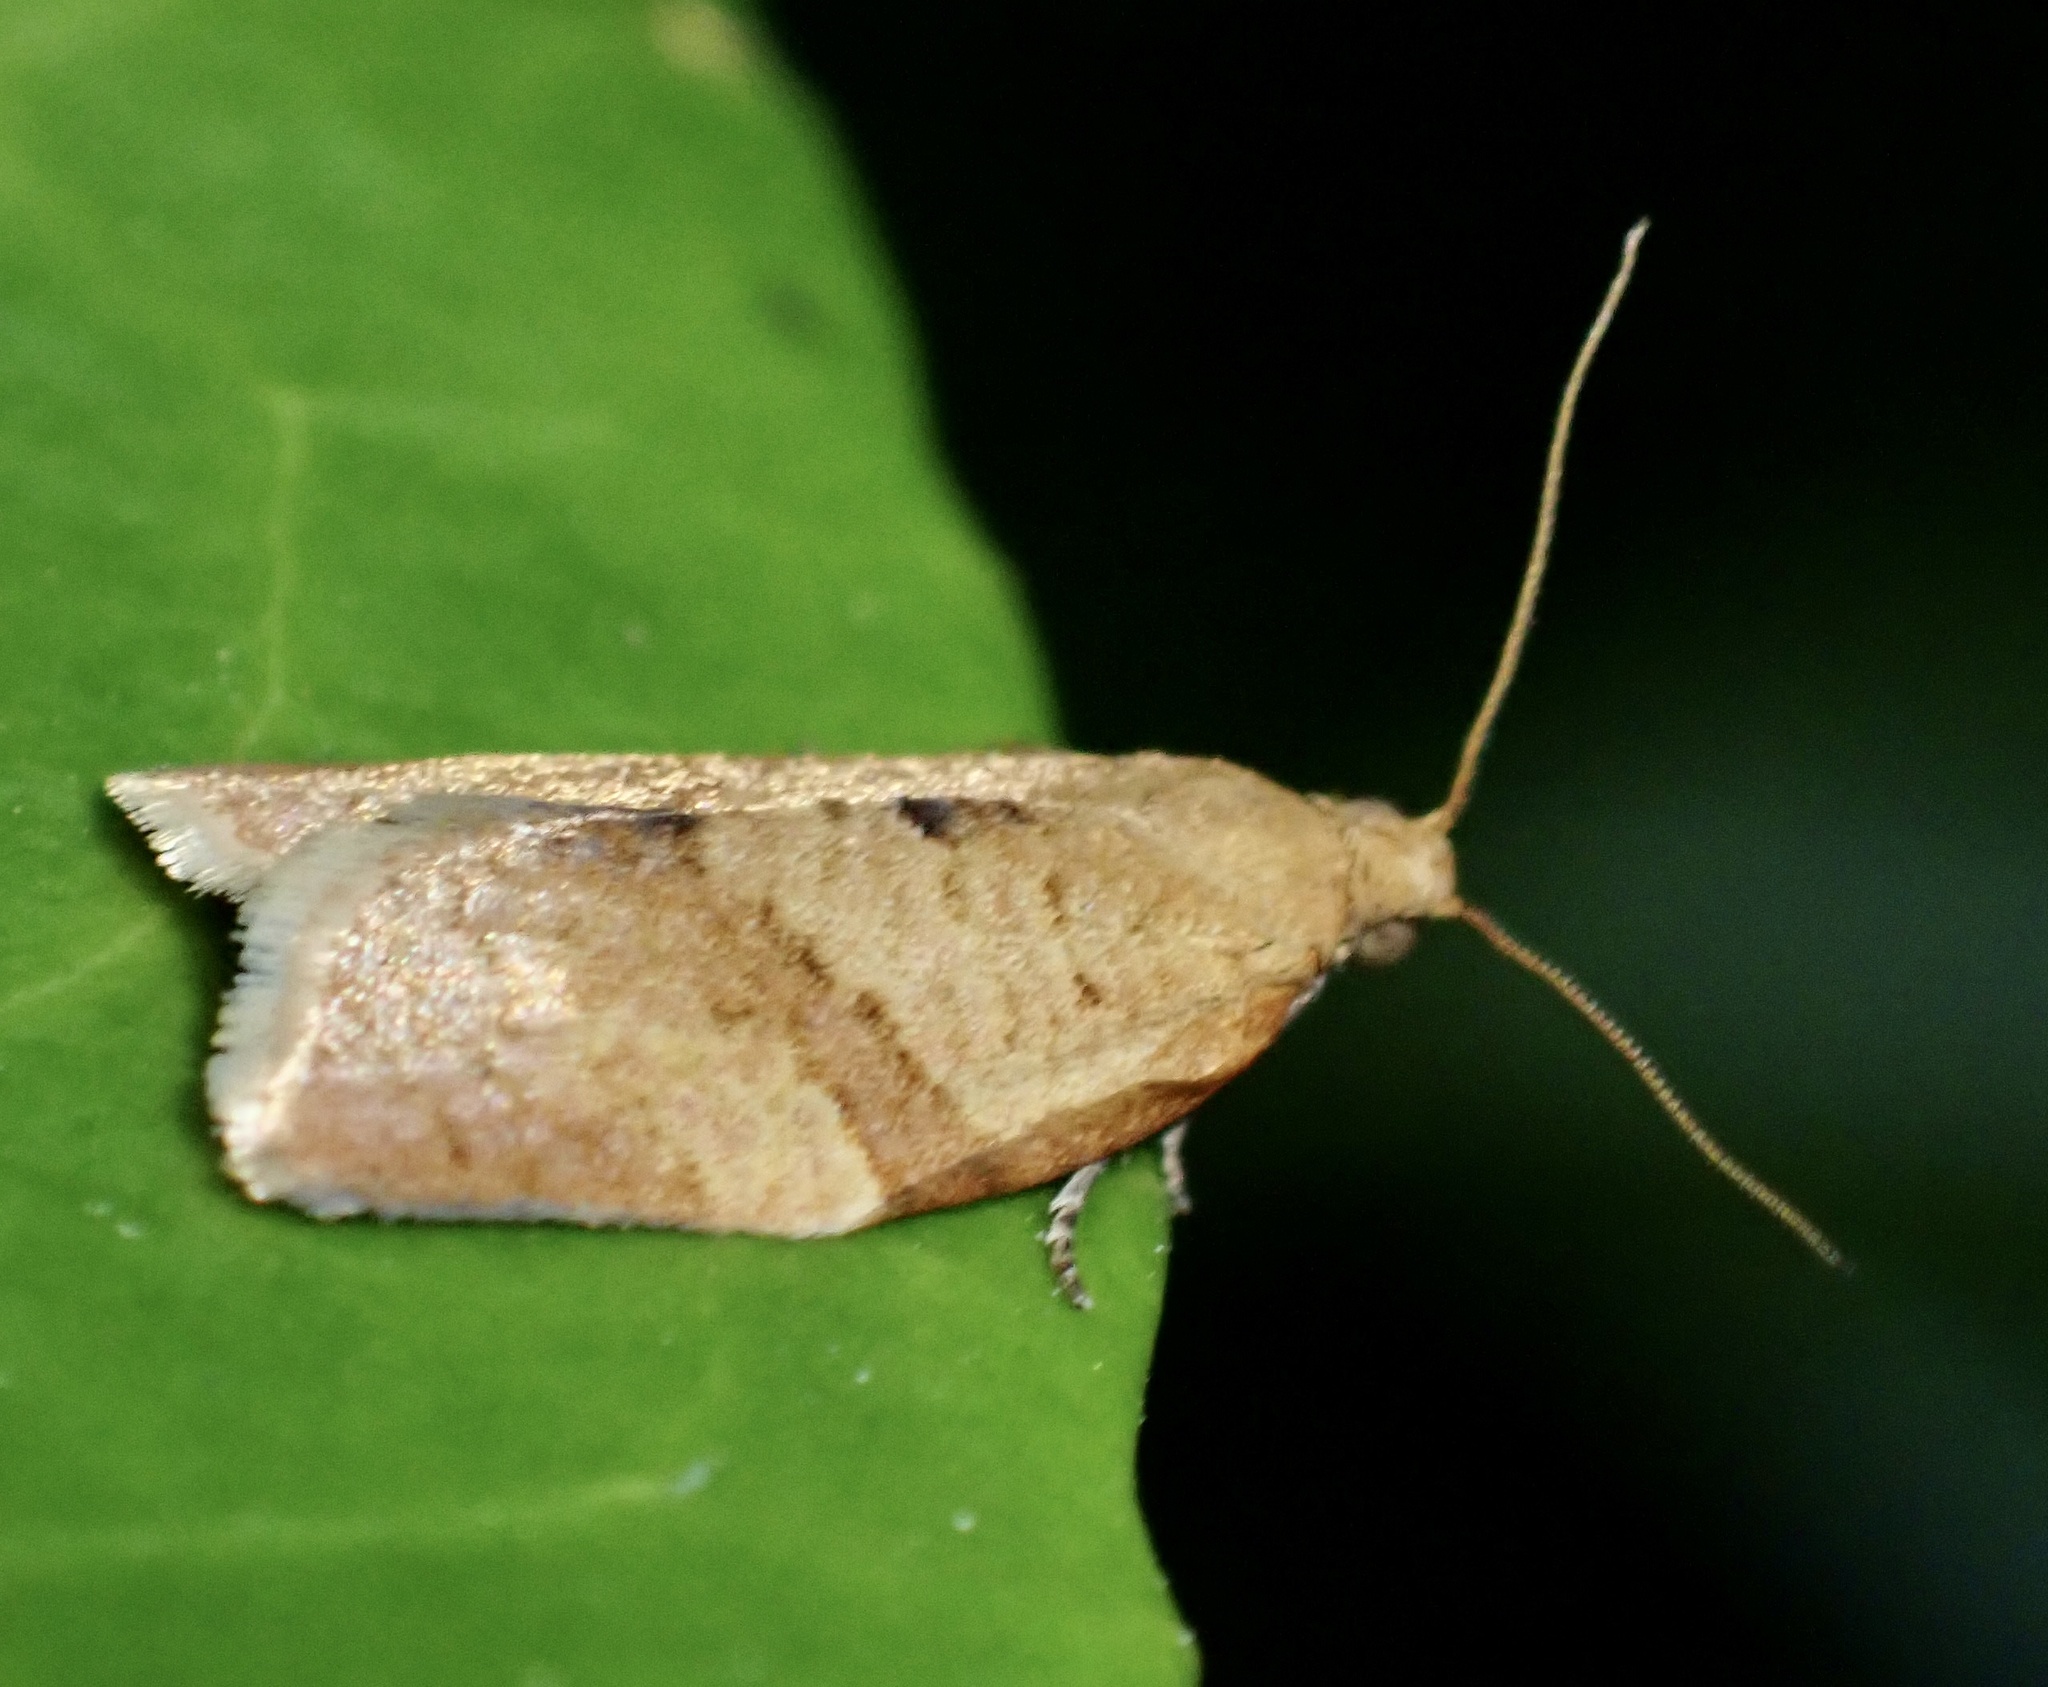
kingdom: Animalia
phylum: Arthropoda
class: Insecta
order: Lepidoptera
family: Tortricidae
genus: Clepsis
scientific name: Clepsis consimilana
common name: Privet tortrix
